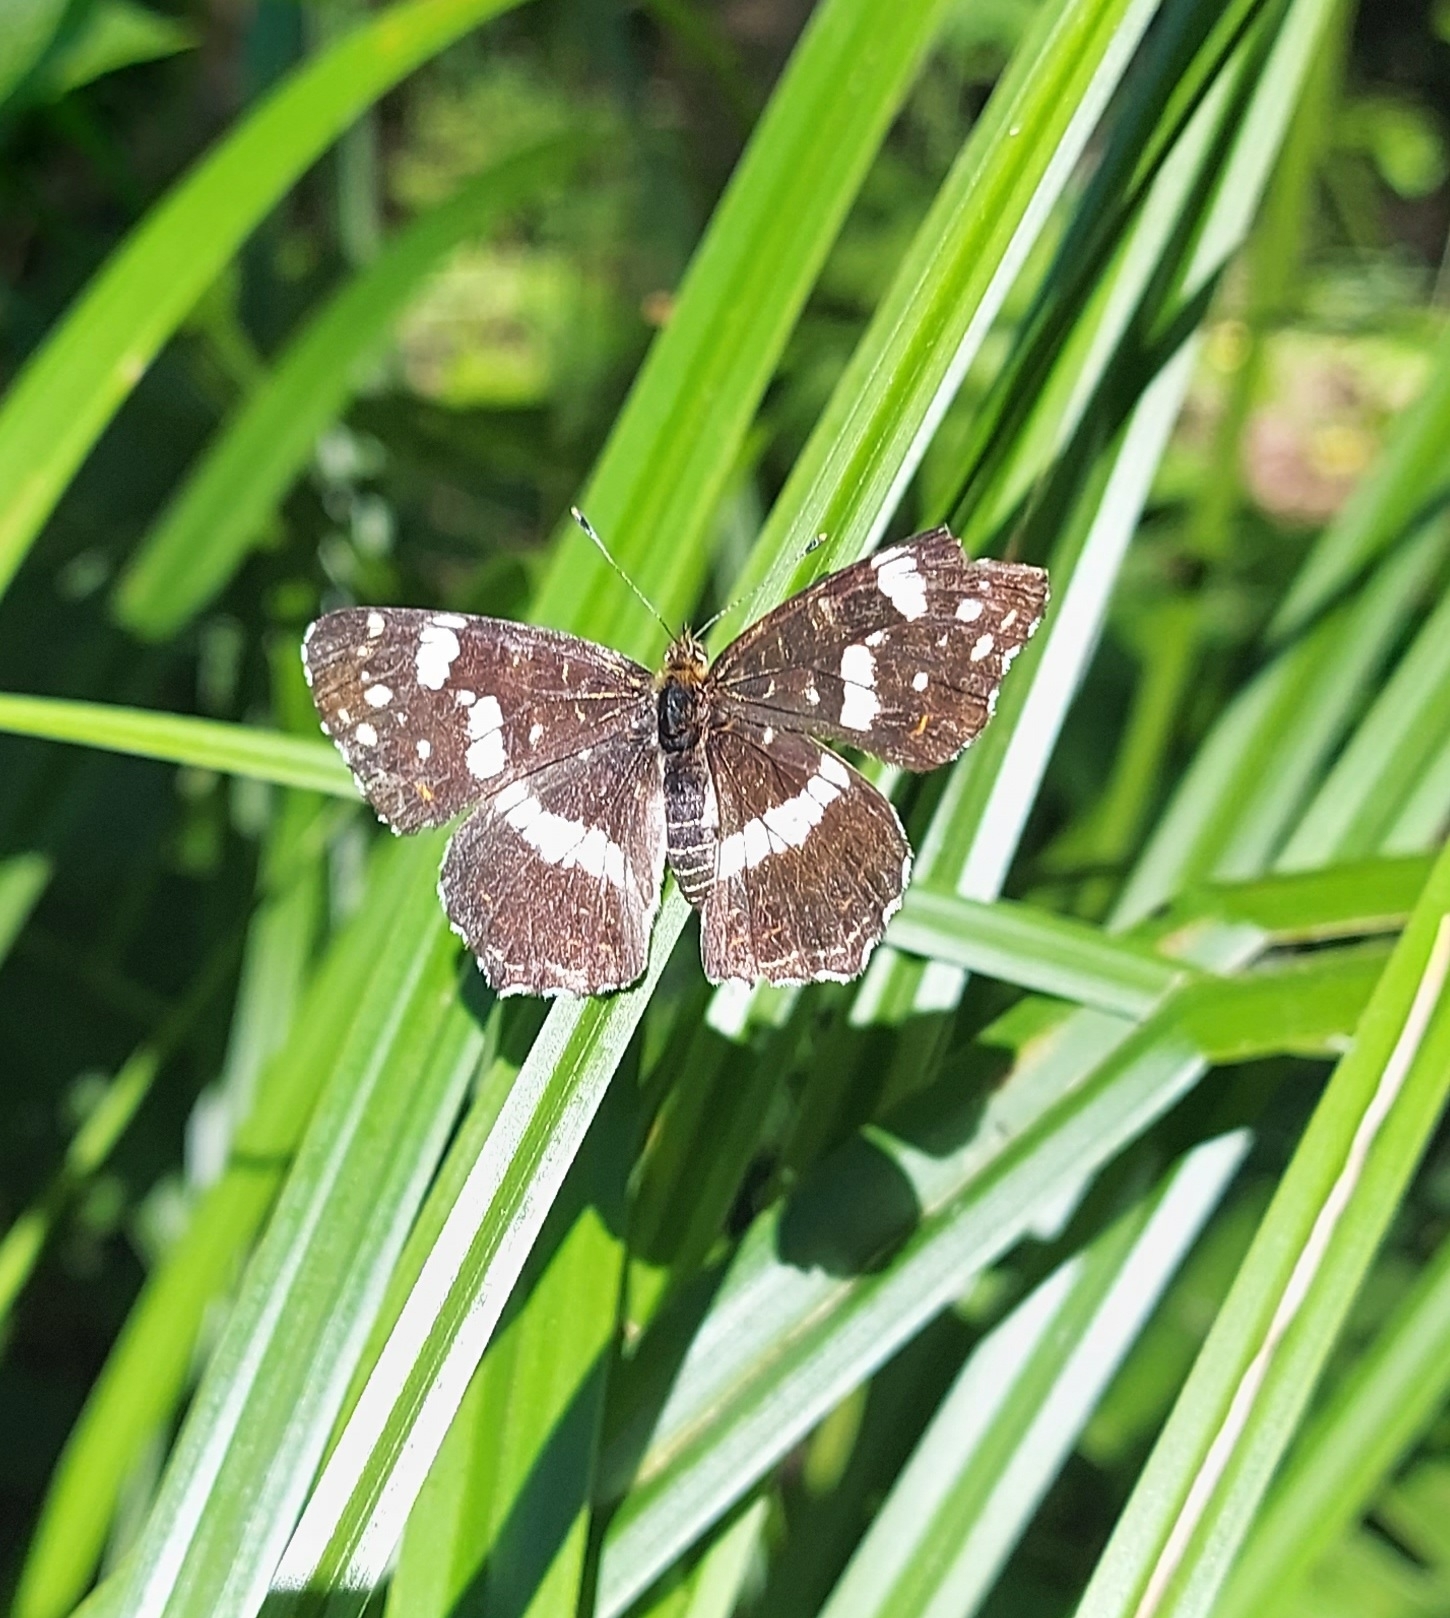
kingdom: Animalia
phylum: Arthropoda
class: Insecta
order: Lepidoptera
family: Nymphalidae
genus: Araschnia
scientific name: Araschnia levana
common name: Map butterfly
